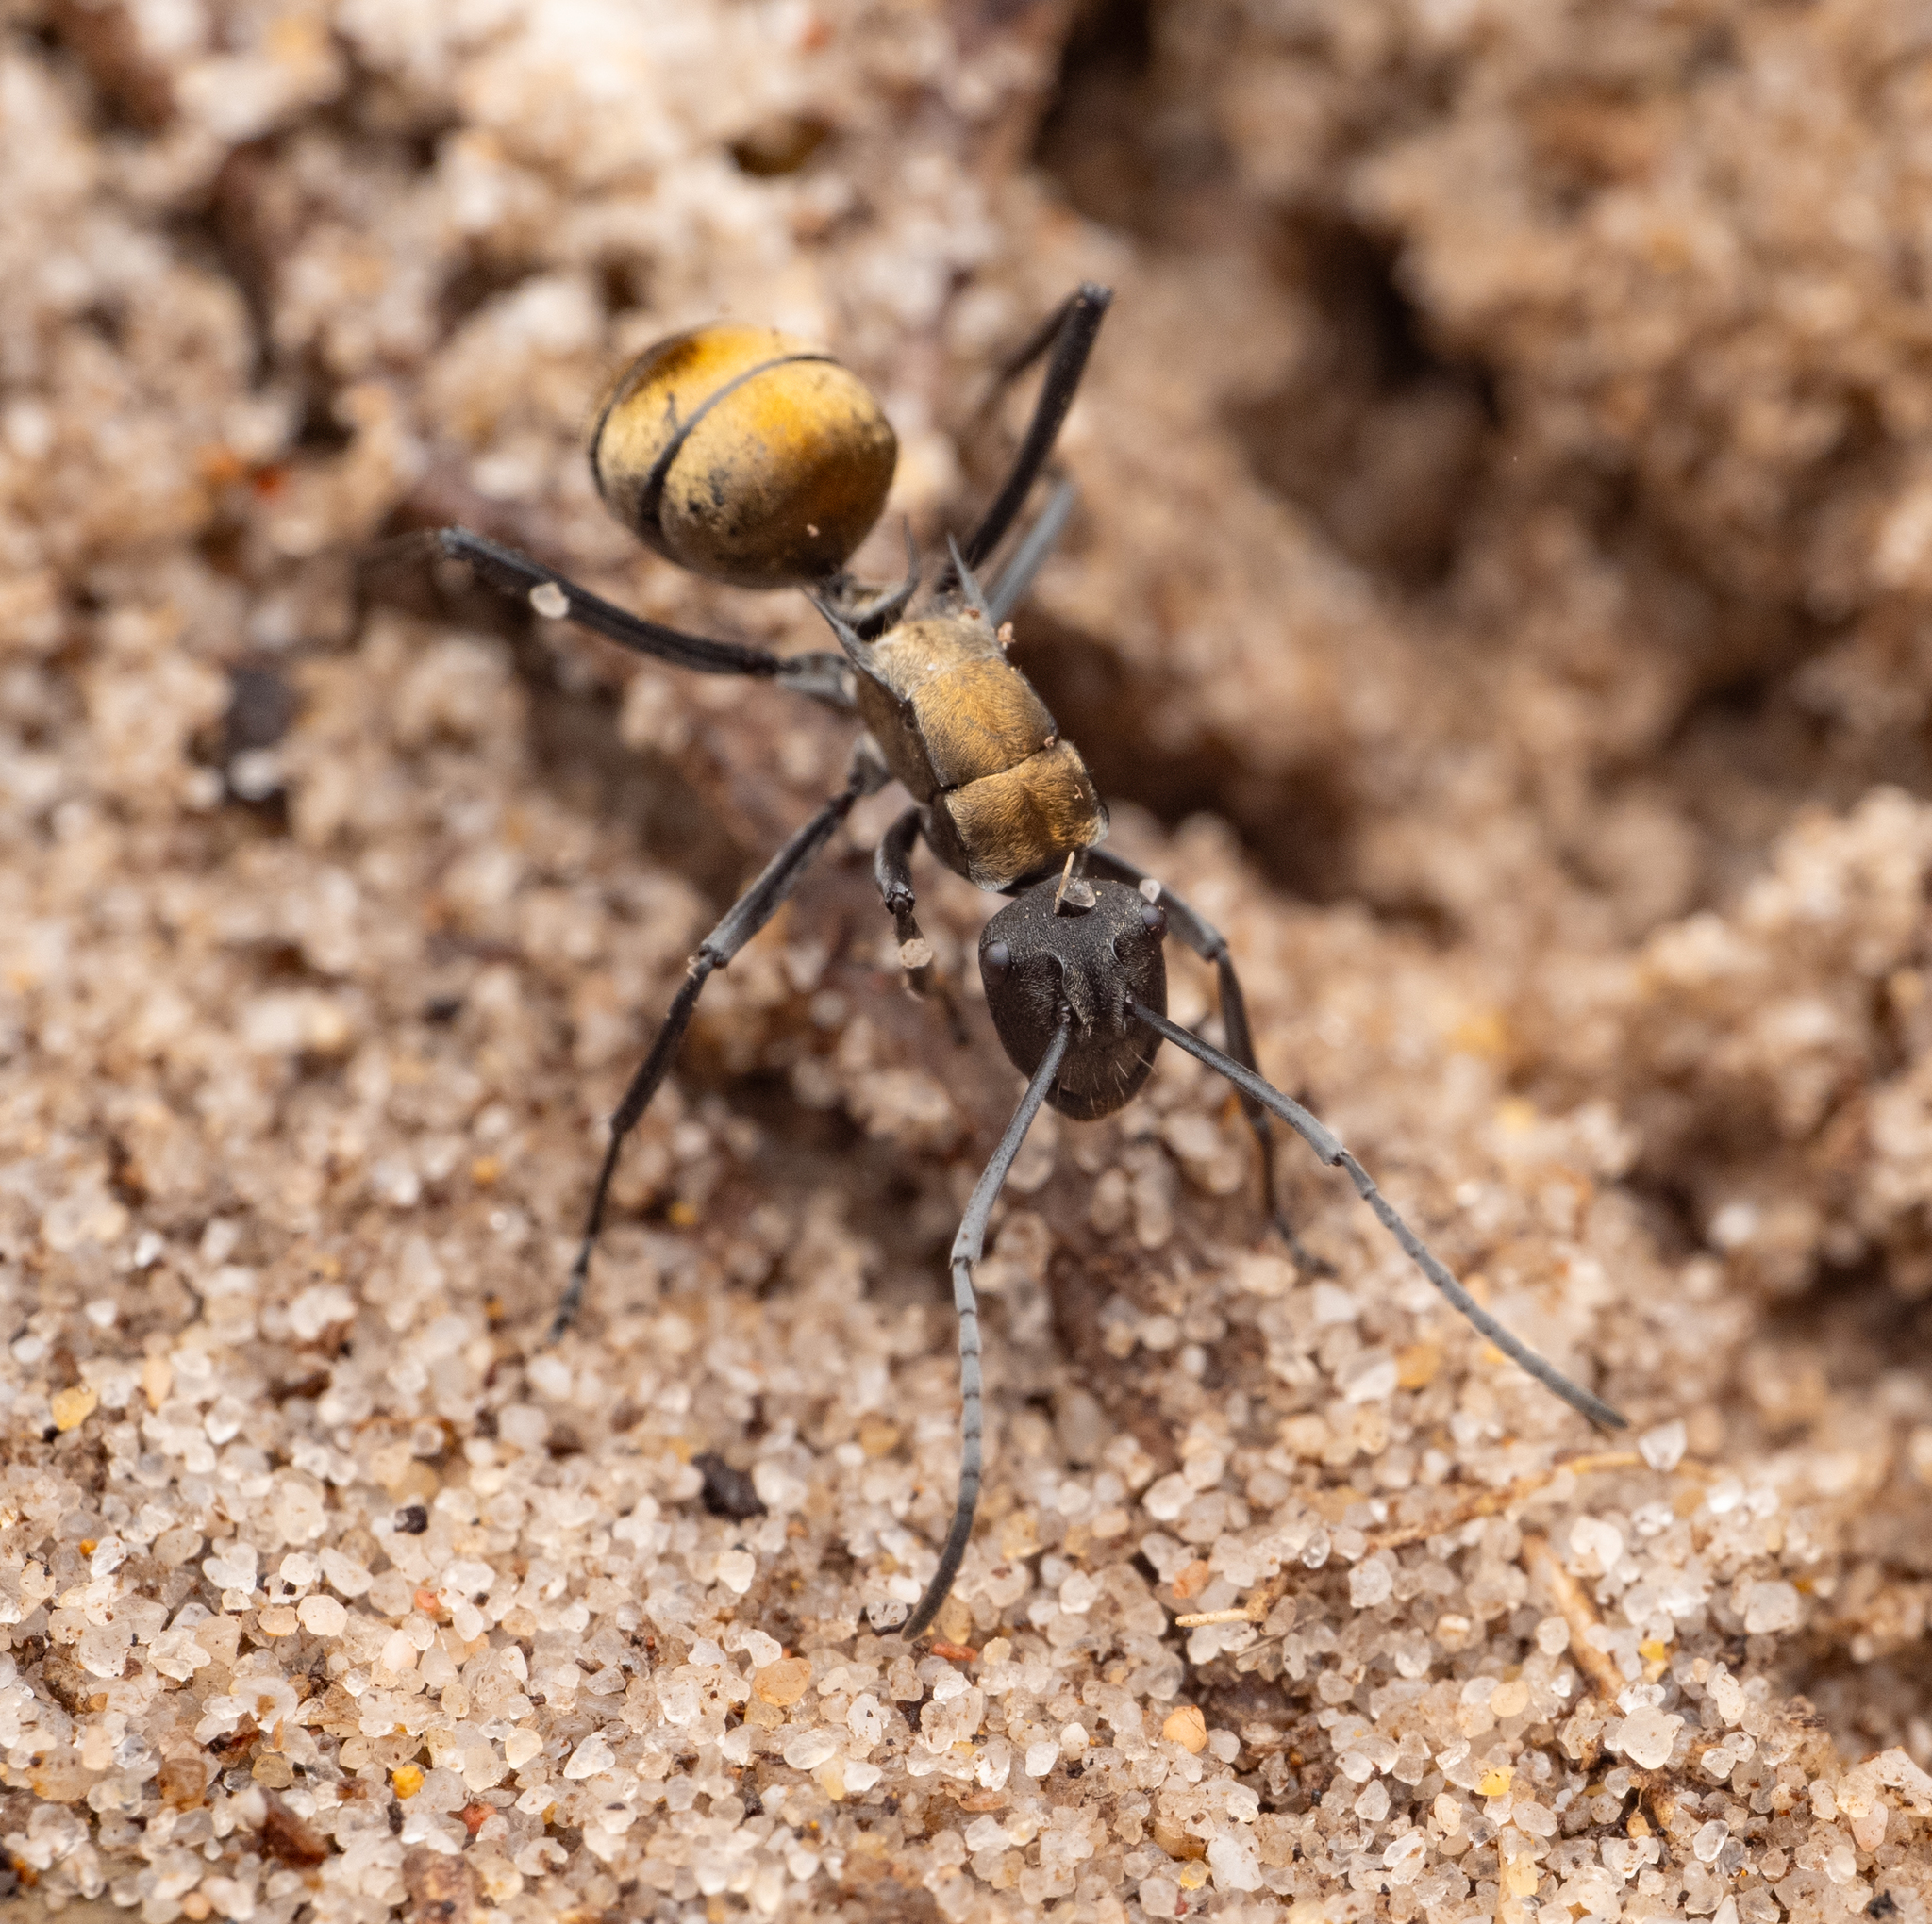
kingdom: Animalia
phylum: Arthropoda
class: Insecta
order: Hymenoptera
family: Formicidae
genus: Polyrhachis
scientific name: Polyrhachis ammon
